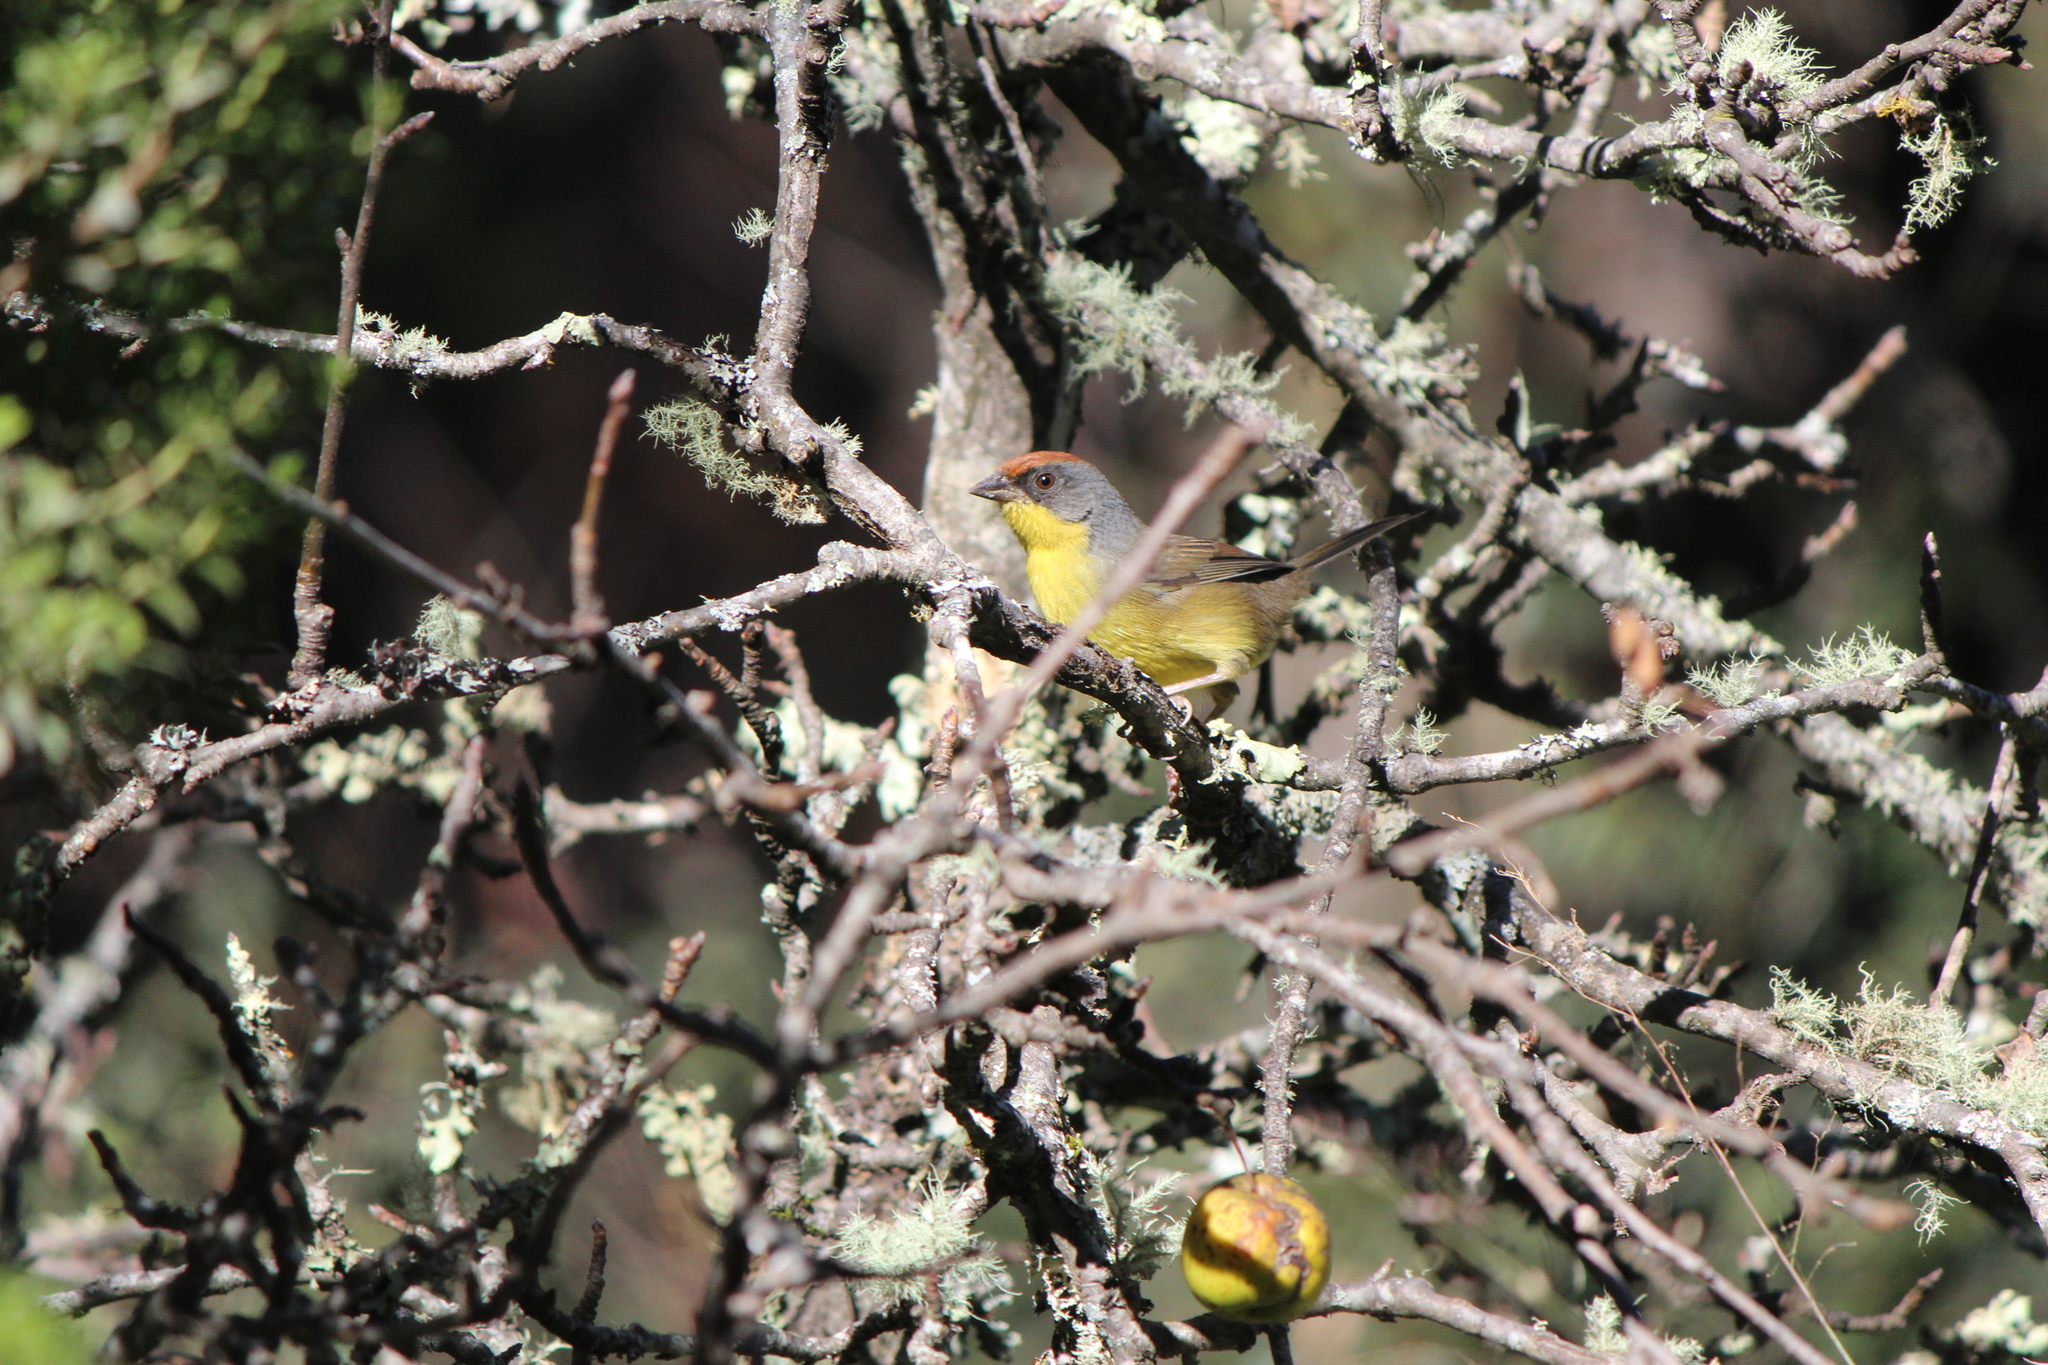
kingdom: Animalia
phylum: Chordata
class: Aves
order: Passeriformes
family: Passerellidae
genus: Atlapetes
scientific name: Atlapetes pileatus
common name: Rufous-capped brush-finch
